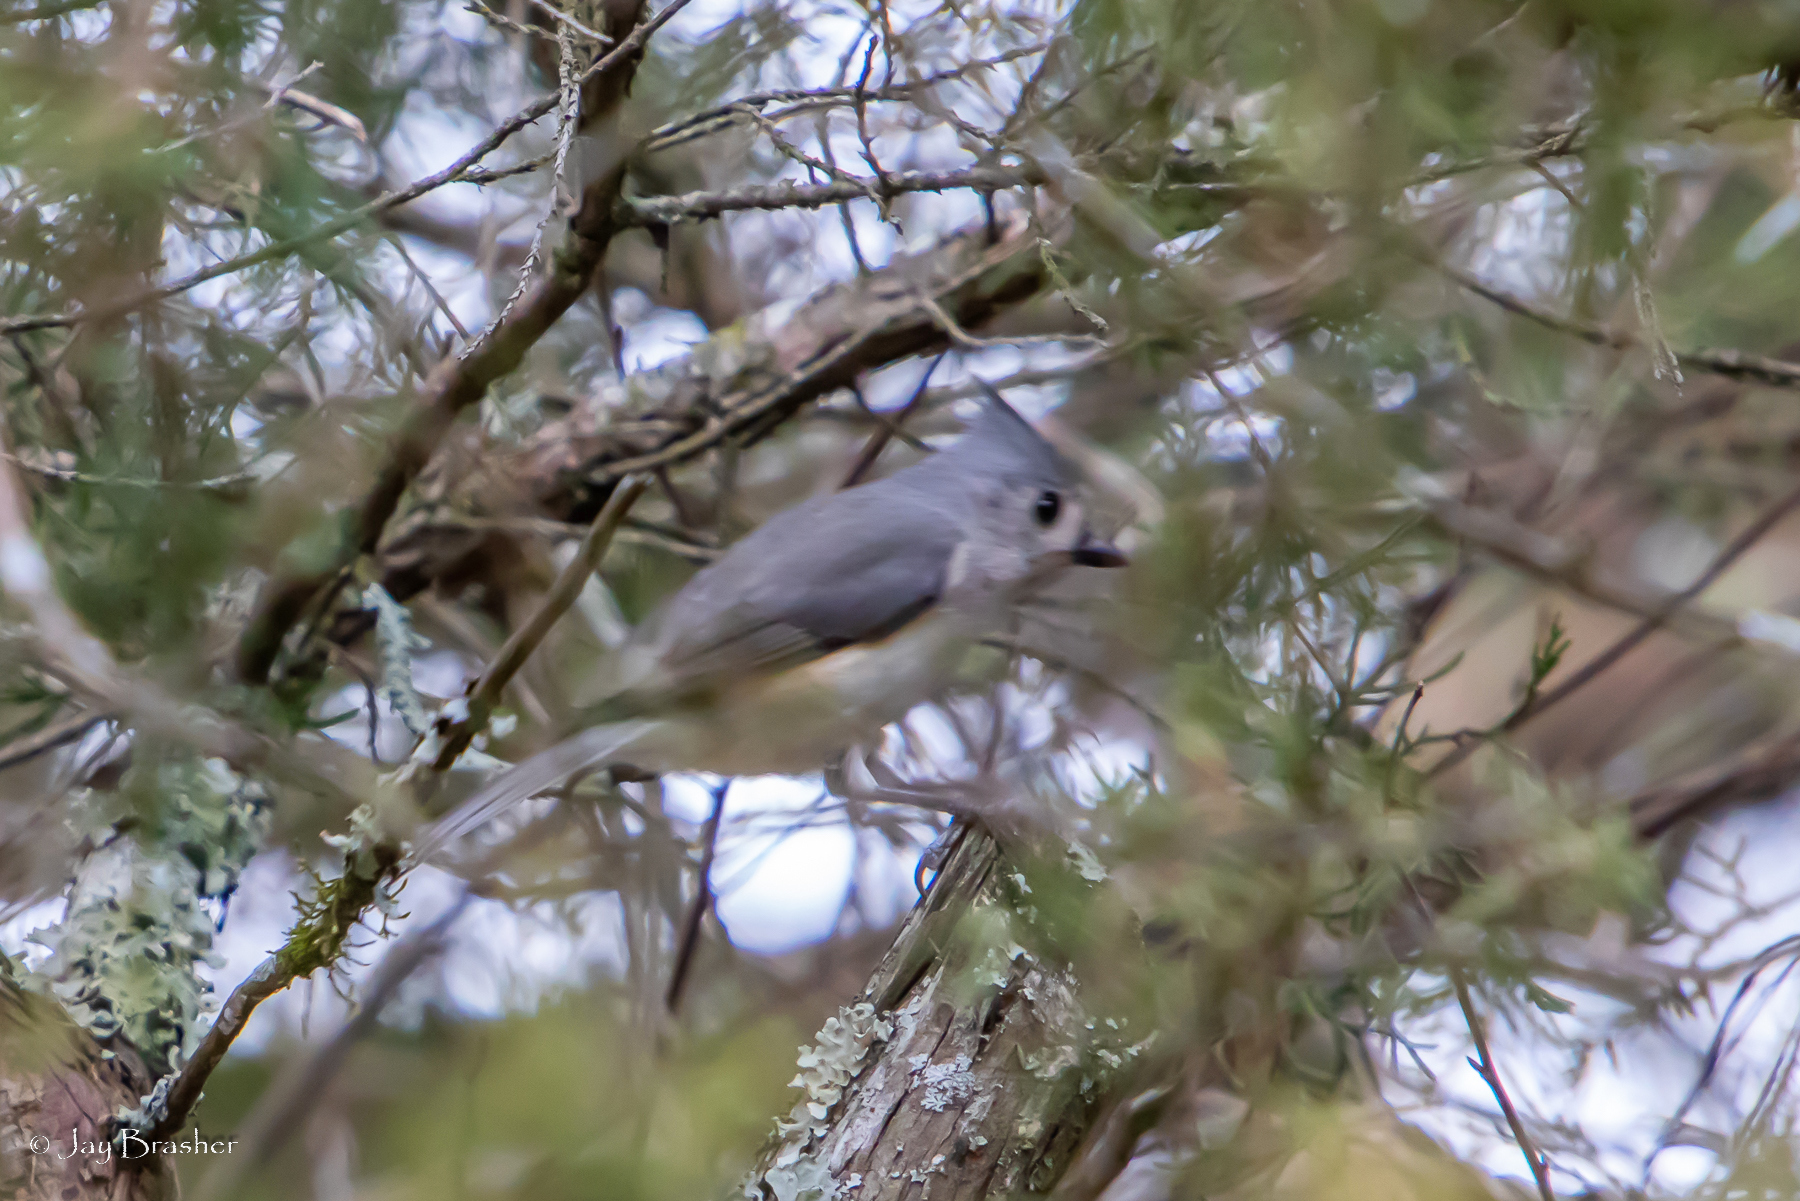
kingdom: Animalia
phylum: Chordata
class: Aves
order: Passeriformes
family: Paridae
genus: Baeolophus
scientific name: Baeolophus bicolor
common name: Tufted titmouse
